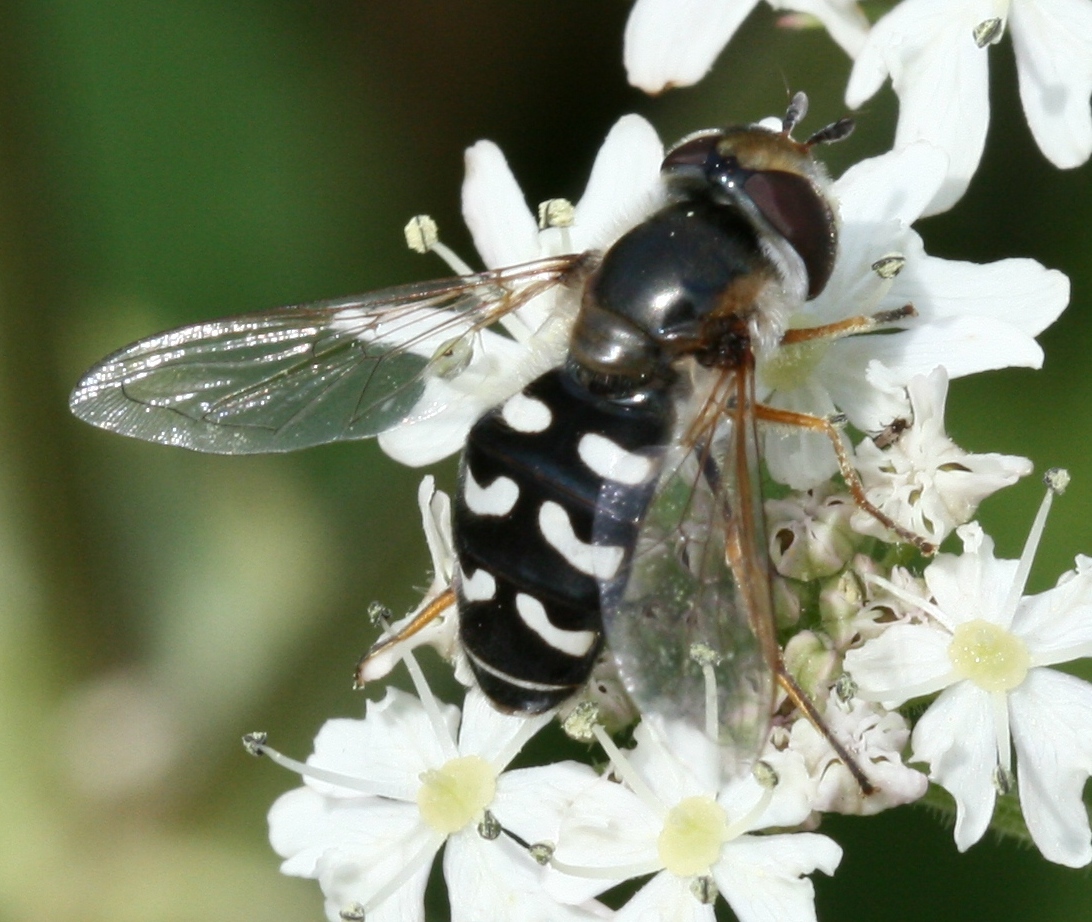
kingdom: Animalia
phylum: Arthropoda
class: Insecta
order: Diptera
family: Syrphidae
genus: Scaeva
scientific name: Scaeva pyrastri
